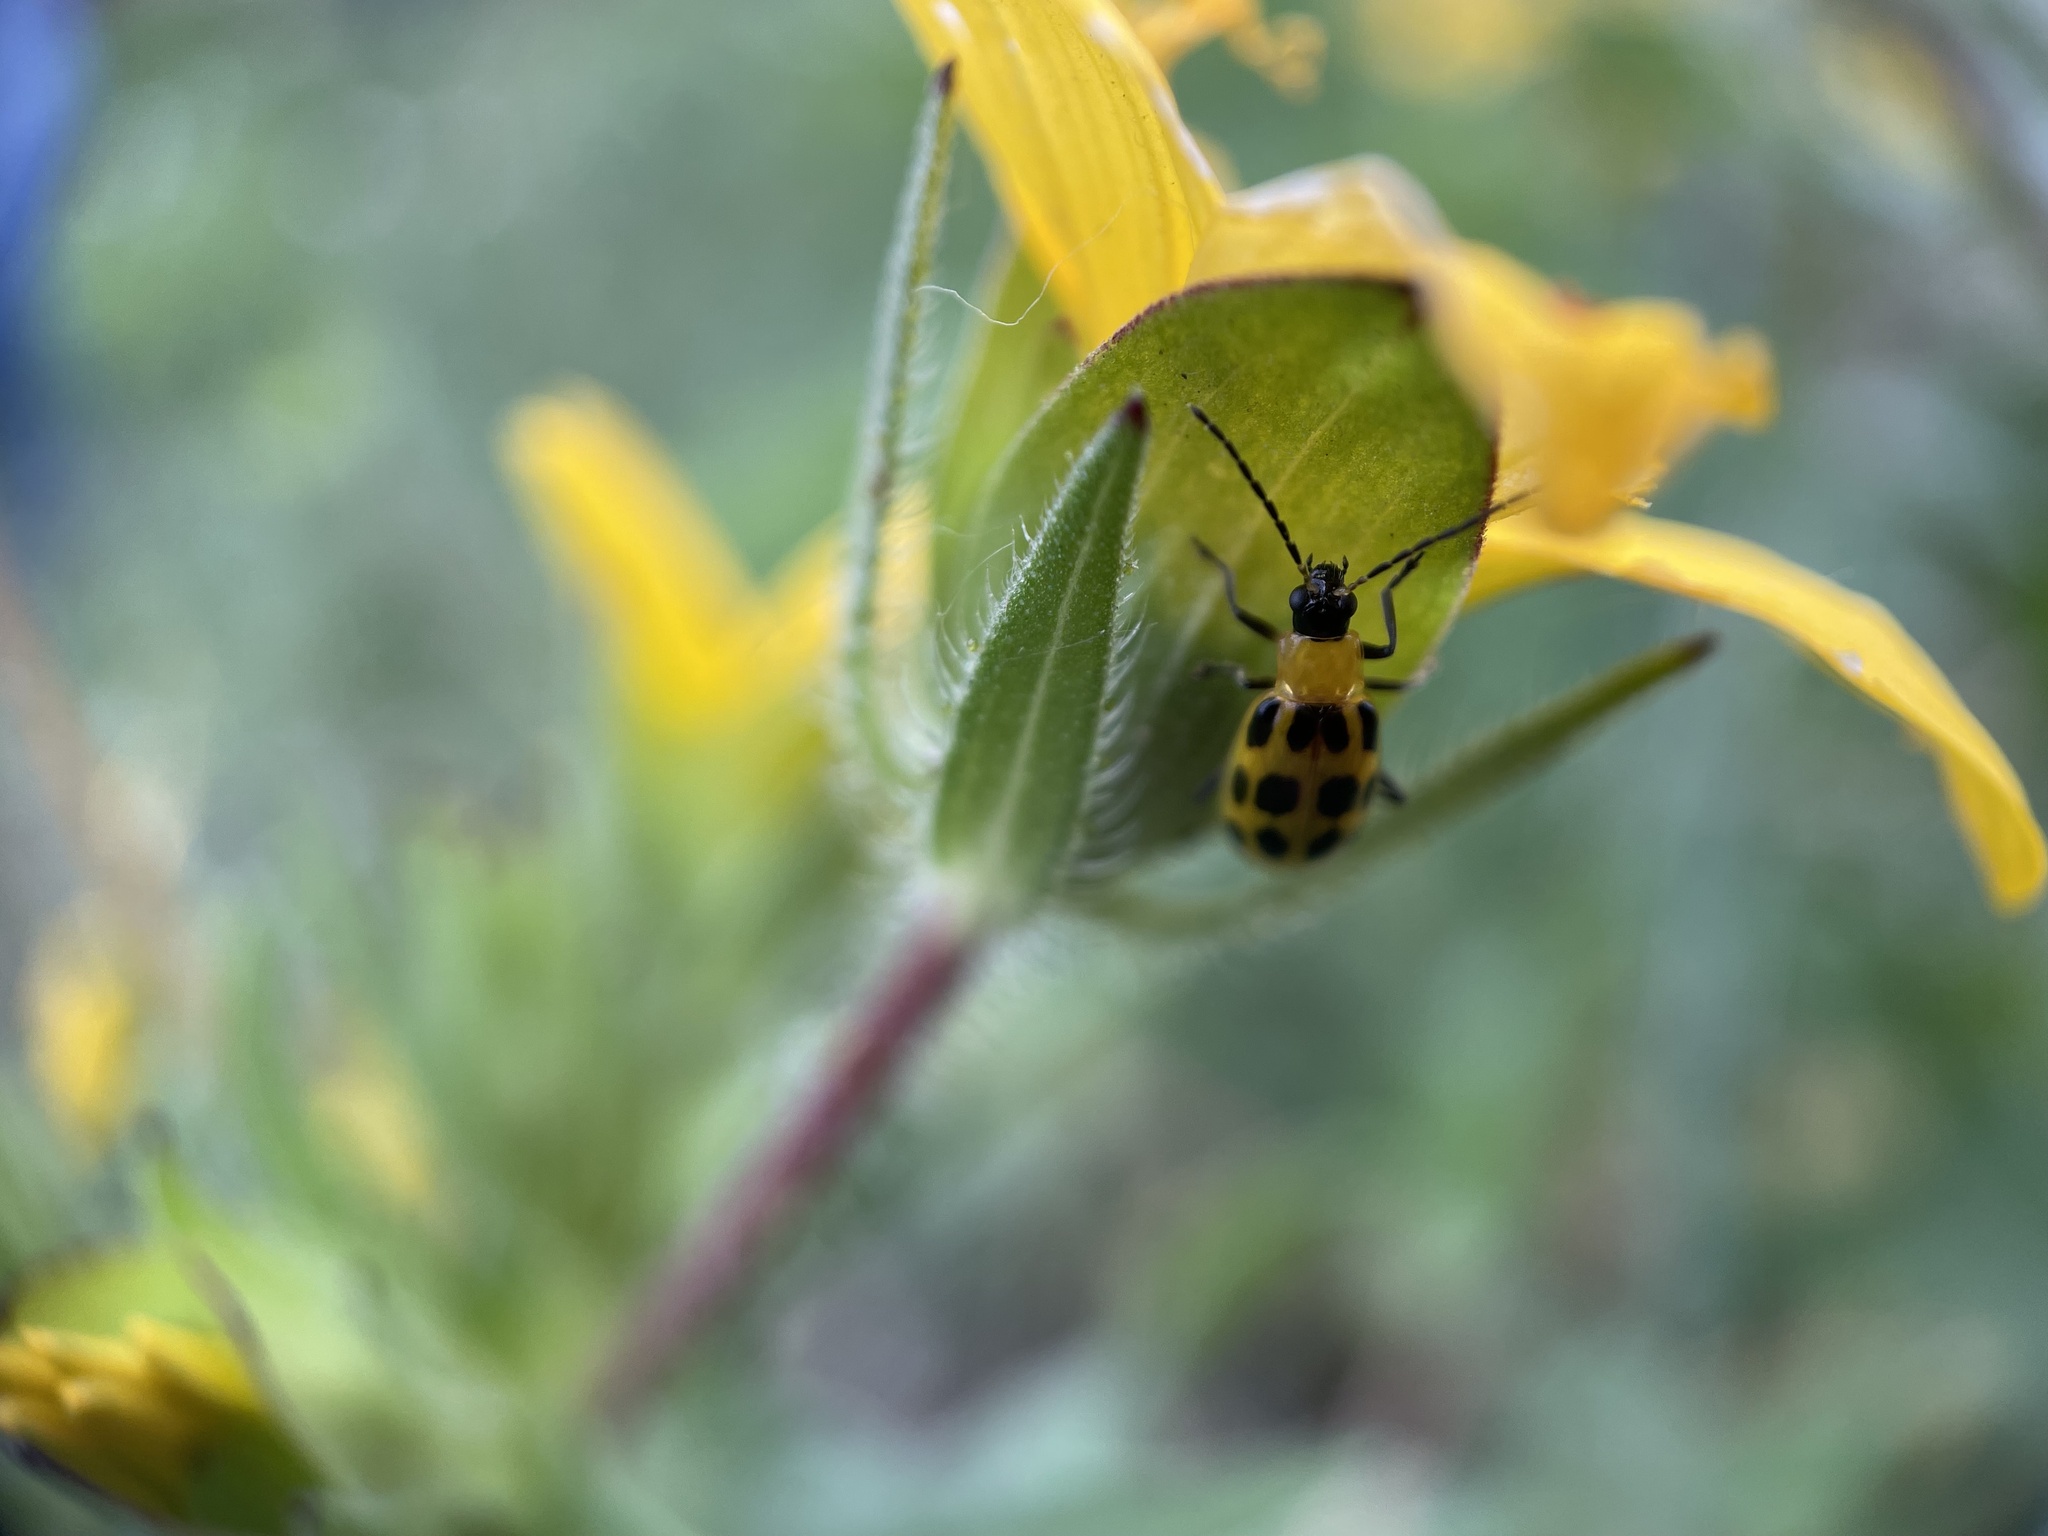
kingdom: Animalia
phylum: Arthropoda
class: Insecta
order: Coleoptera
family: Chrysomelidae
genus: Diabrotica
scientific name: Diabrotica undecimpunctata
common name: Spotted cucumber beetle
